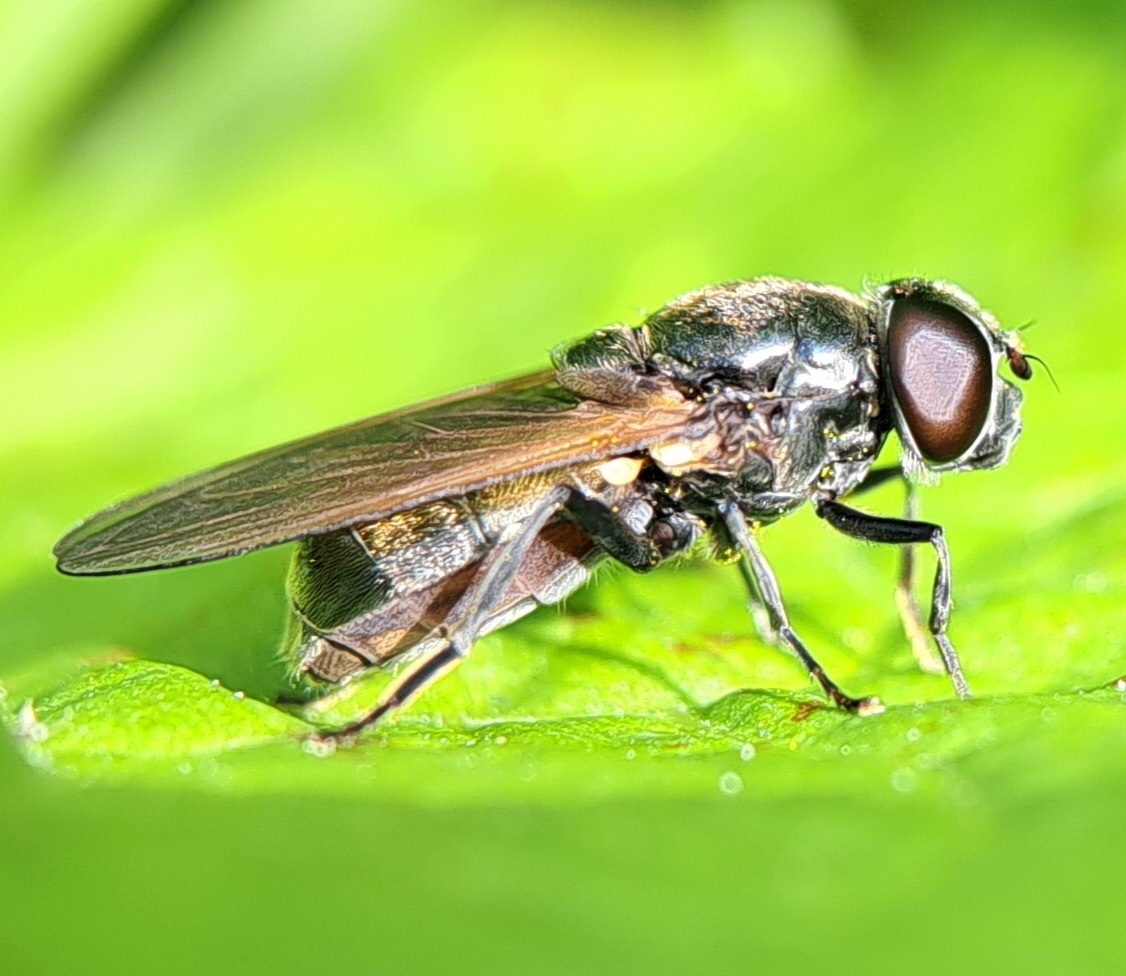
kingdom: Animalia
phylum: Arthropoda
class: Insecta
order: Diptera
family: Syrphidae
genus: Cheilosia
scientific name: Cheilosia
